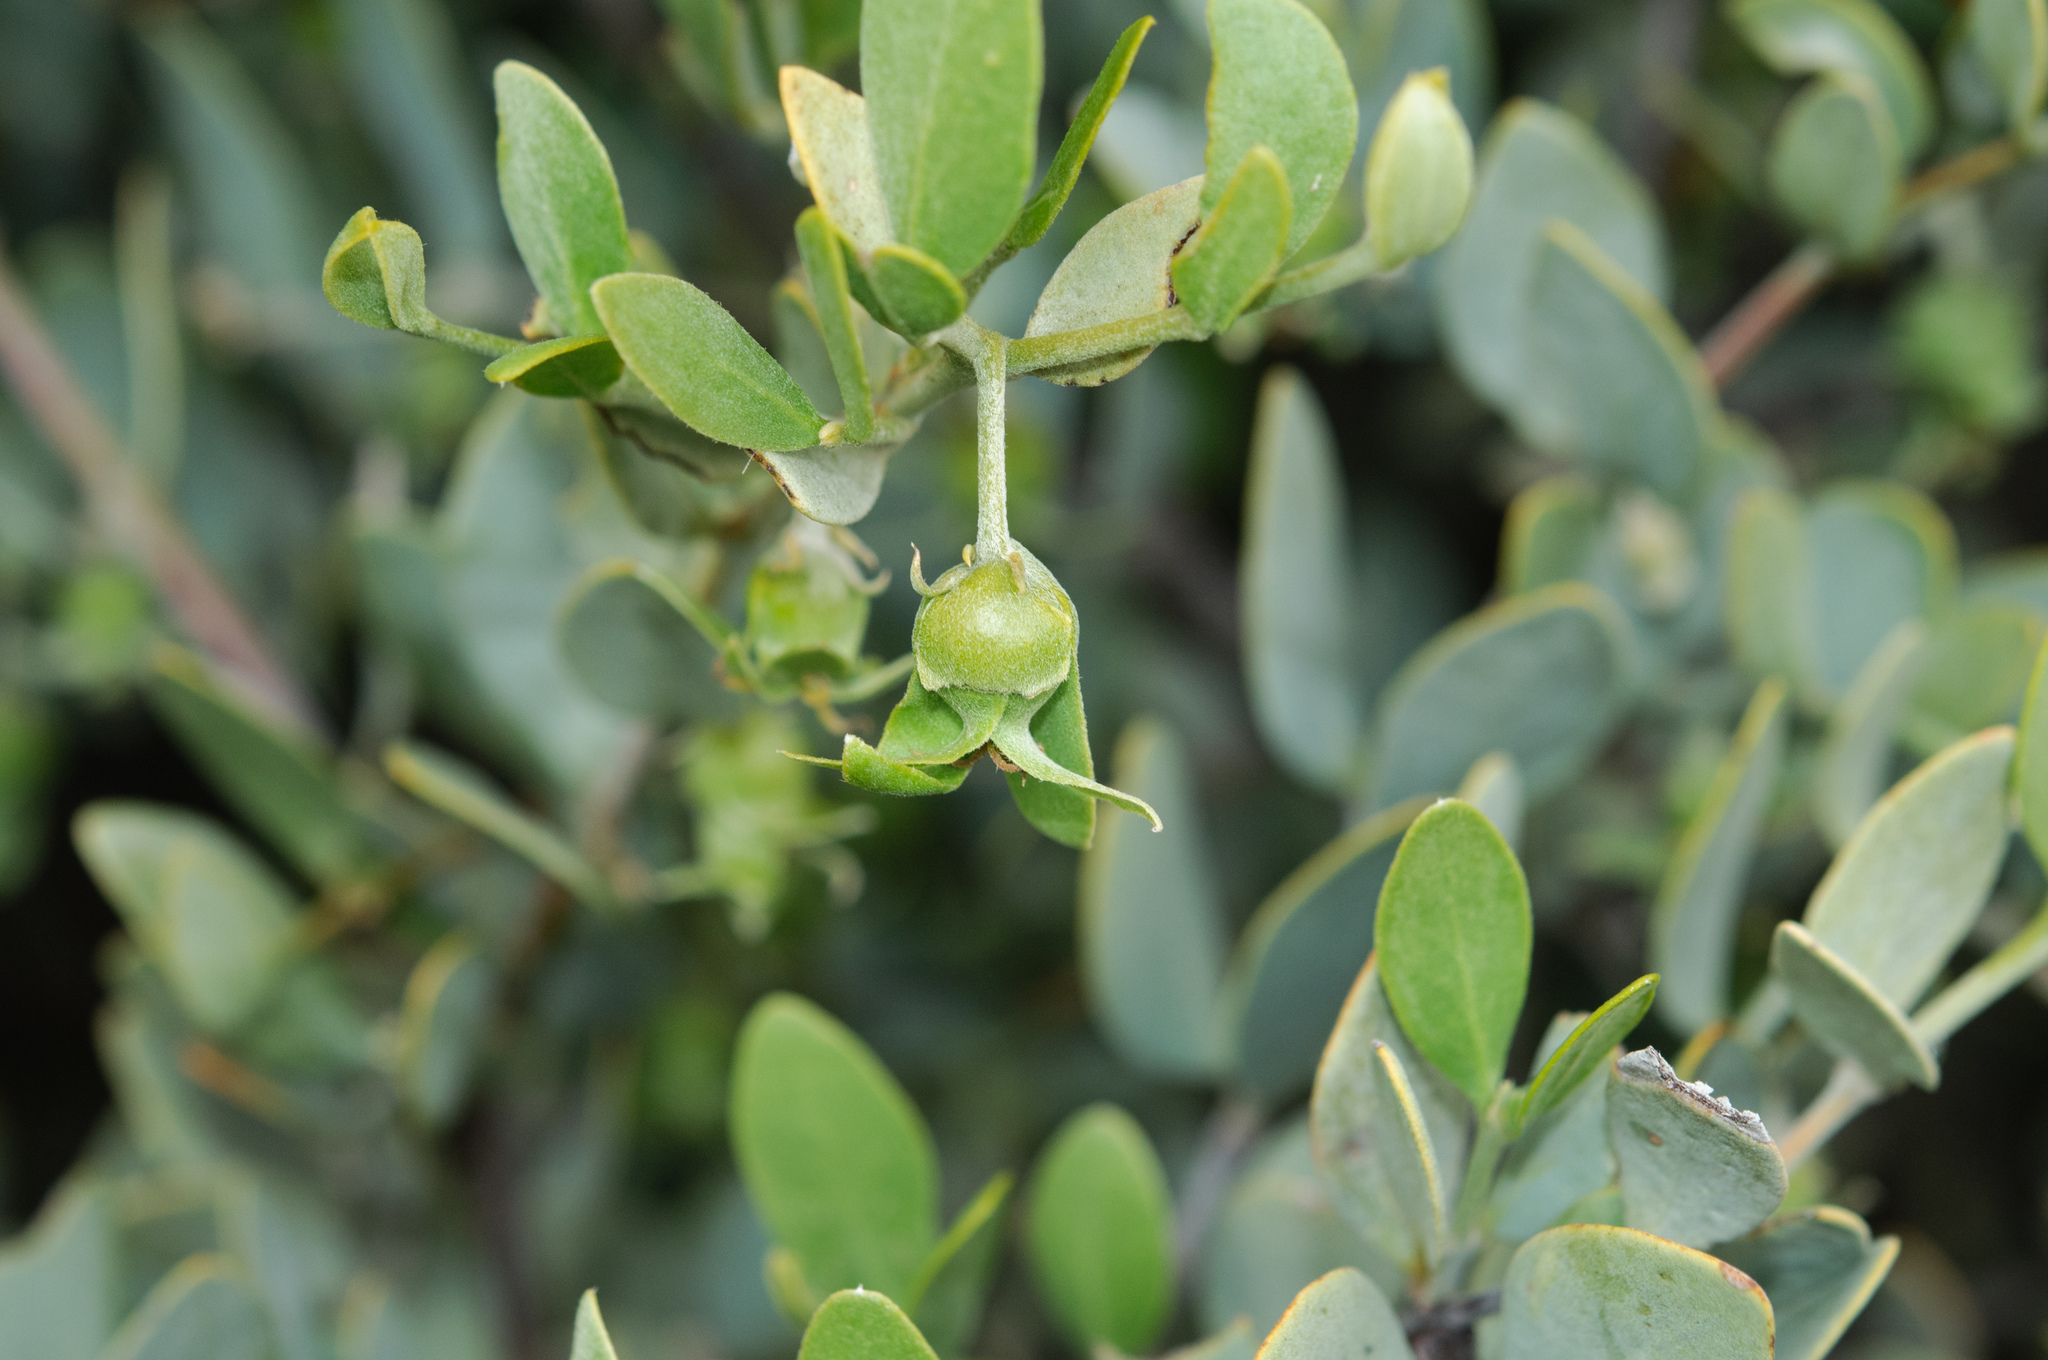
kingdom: Plantae
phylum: Tracheophyta
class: Magnoliopsida
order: Caryophyllales
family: Simmondsiaceae
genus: Simmondsia
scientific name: Simmondsia chinensis
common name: Jojoba
